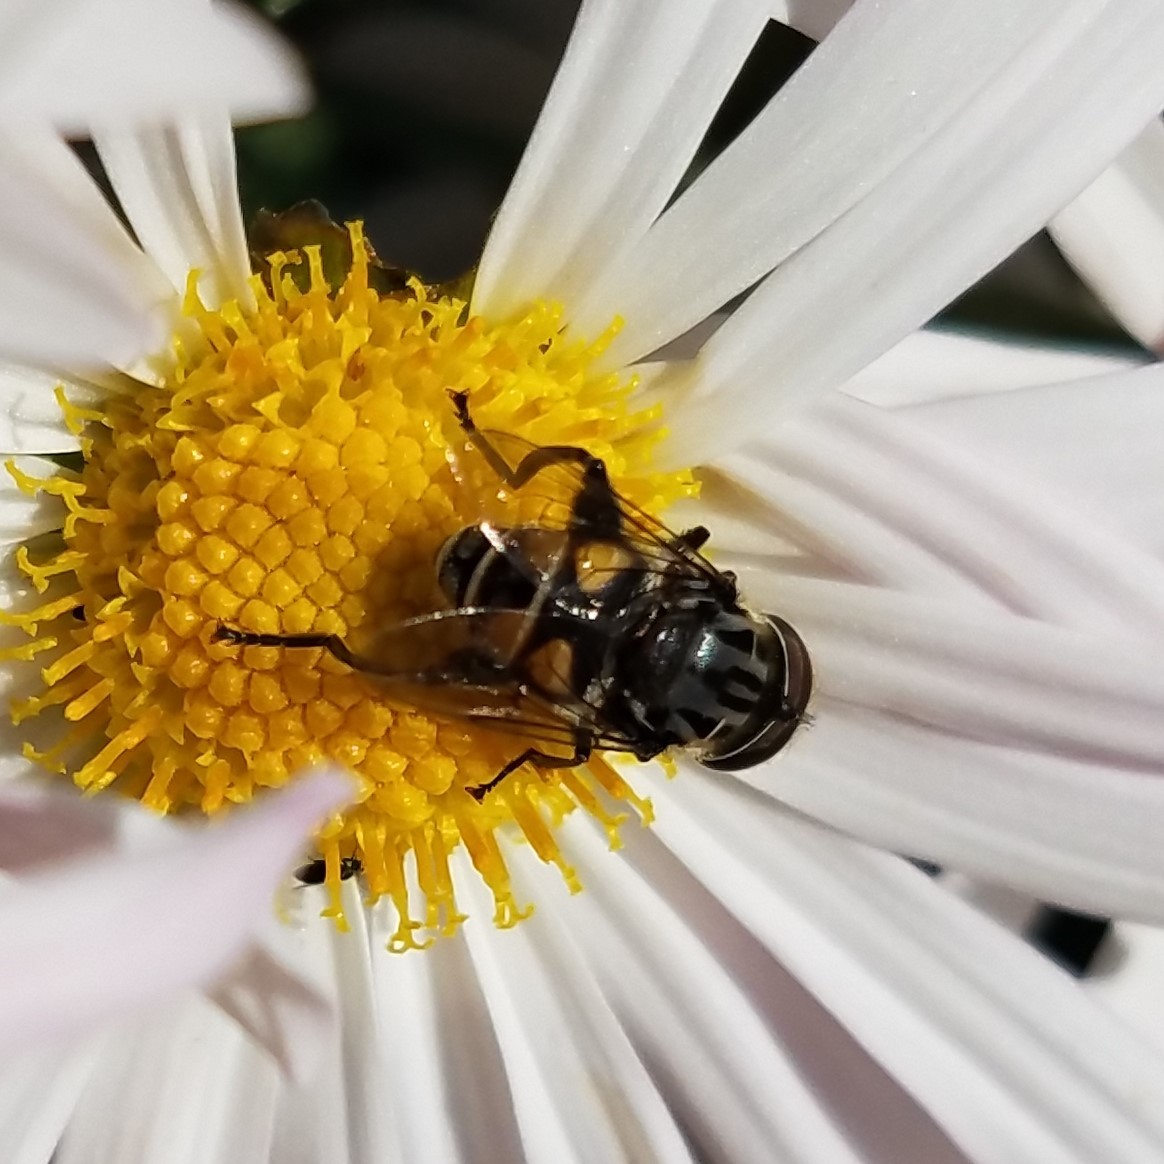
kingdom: Animalia
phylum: Arthropoda
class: Insecta
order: Diptera
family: Syrphidae
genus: Palpada
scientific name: Palpada furcata
